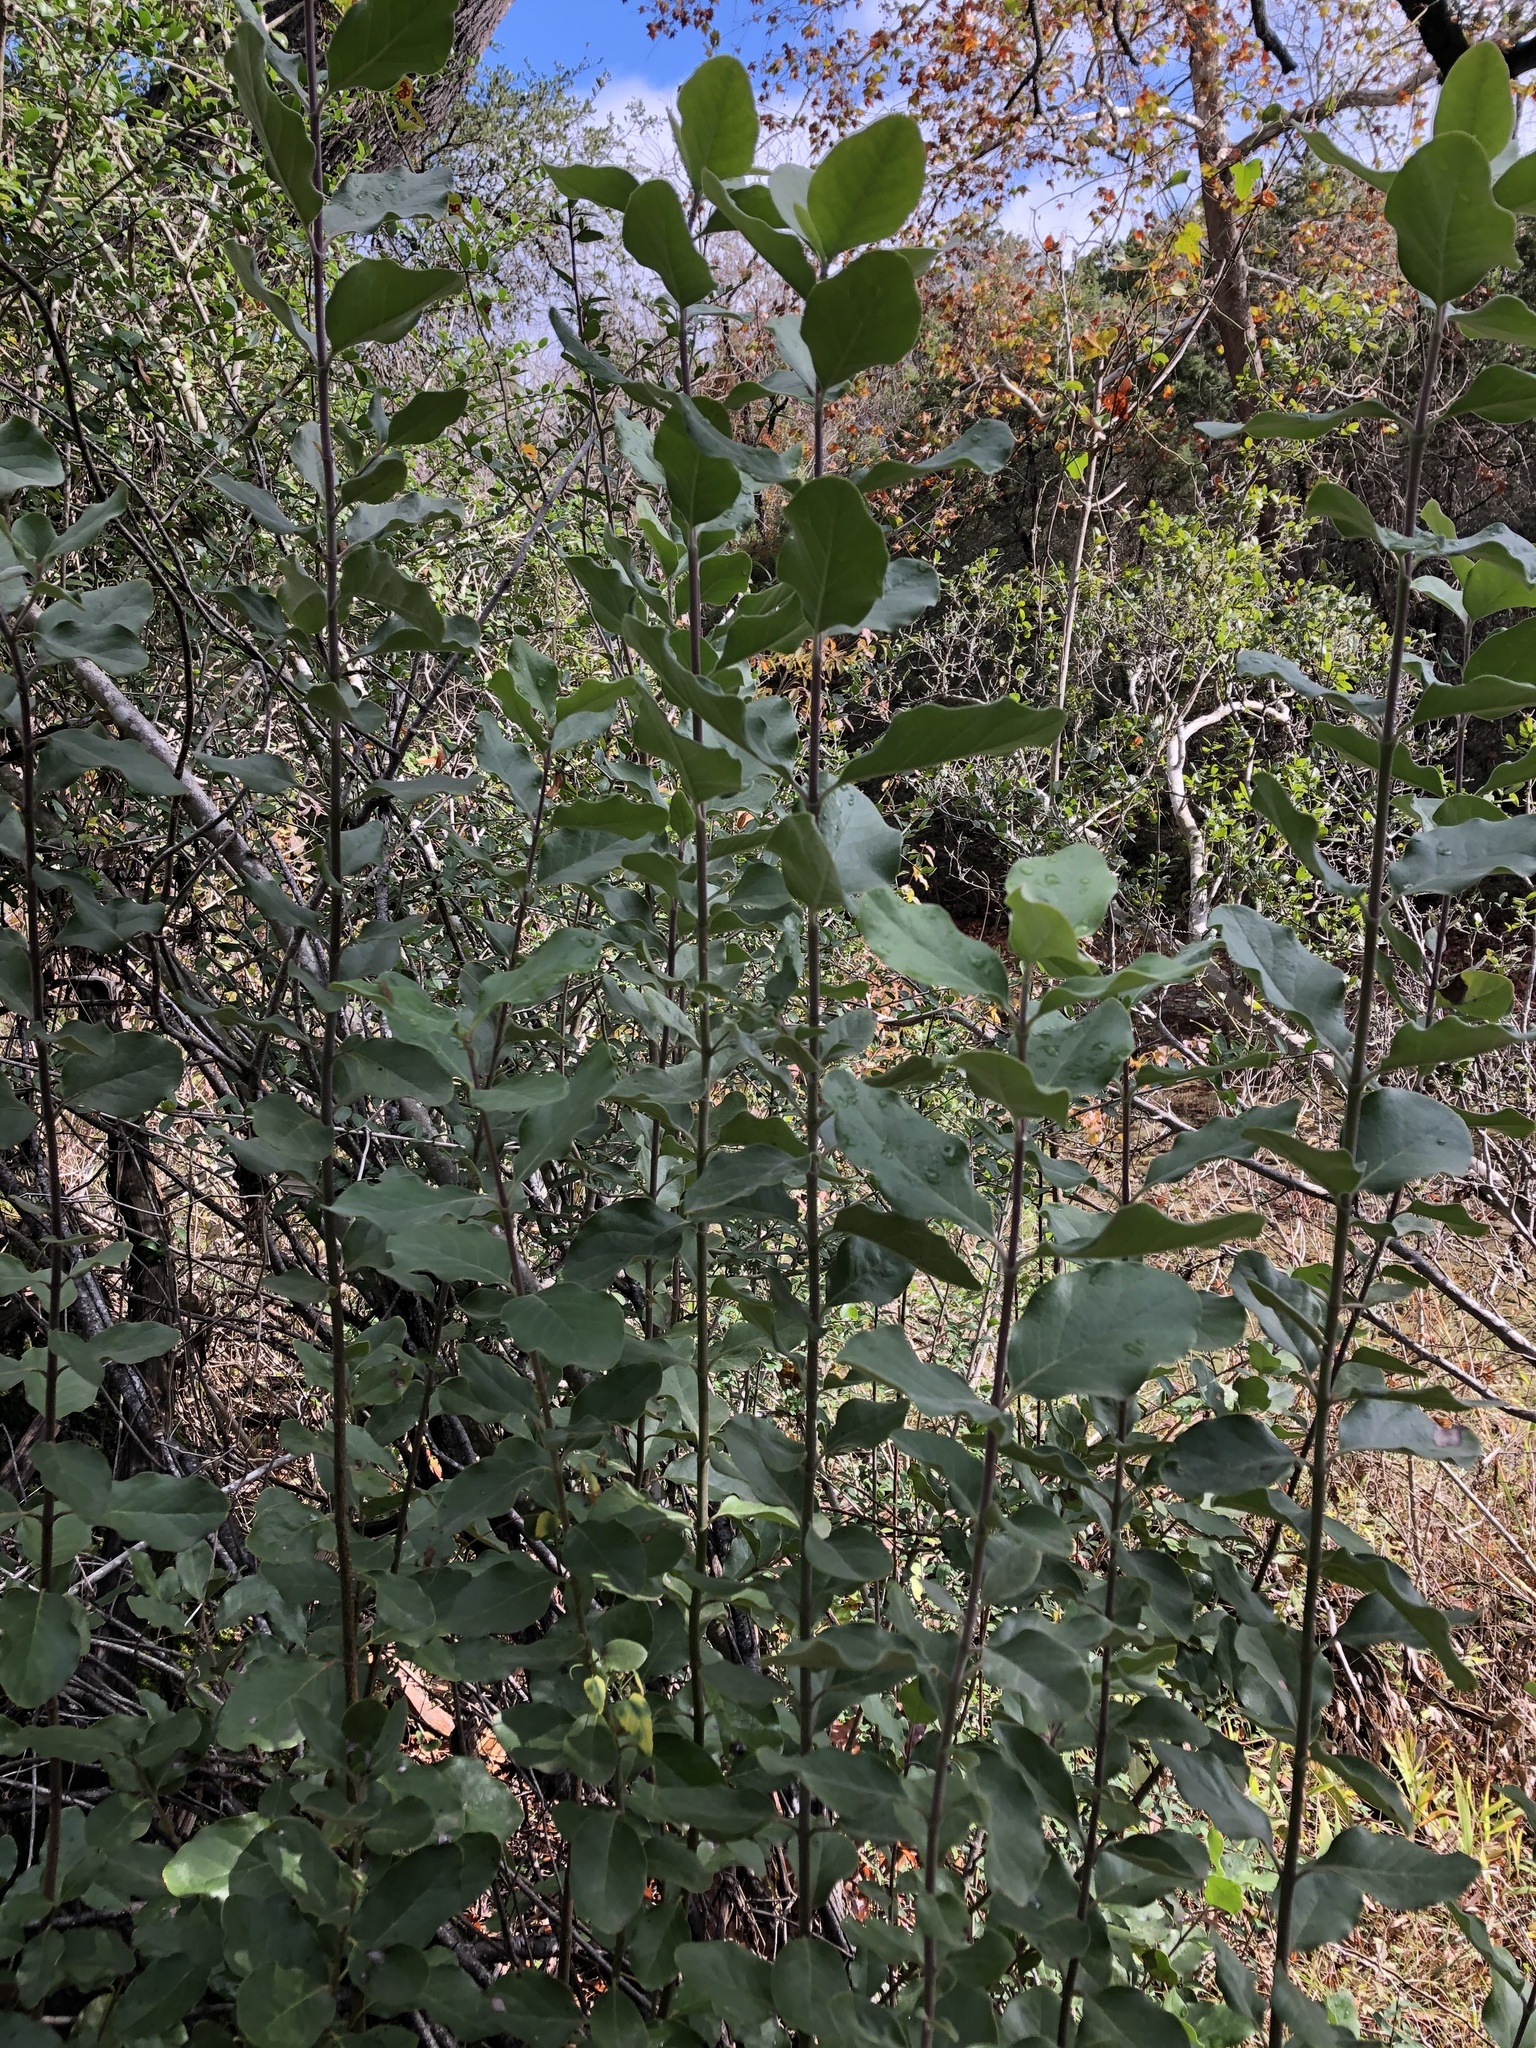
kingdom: Plantae
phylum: Tracheophyta
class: Magnoliopsida
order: Garryales
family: Garryaceae
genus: Garrya
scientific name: Garrya lindheimeri
